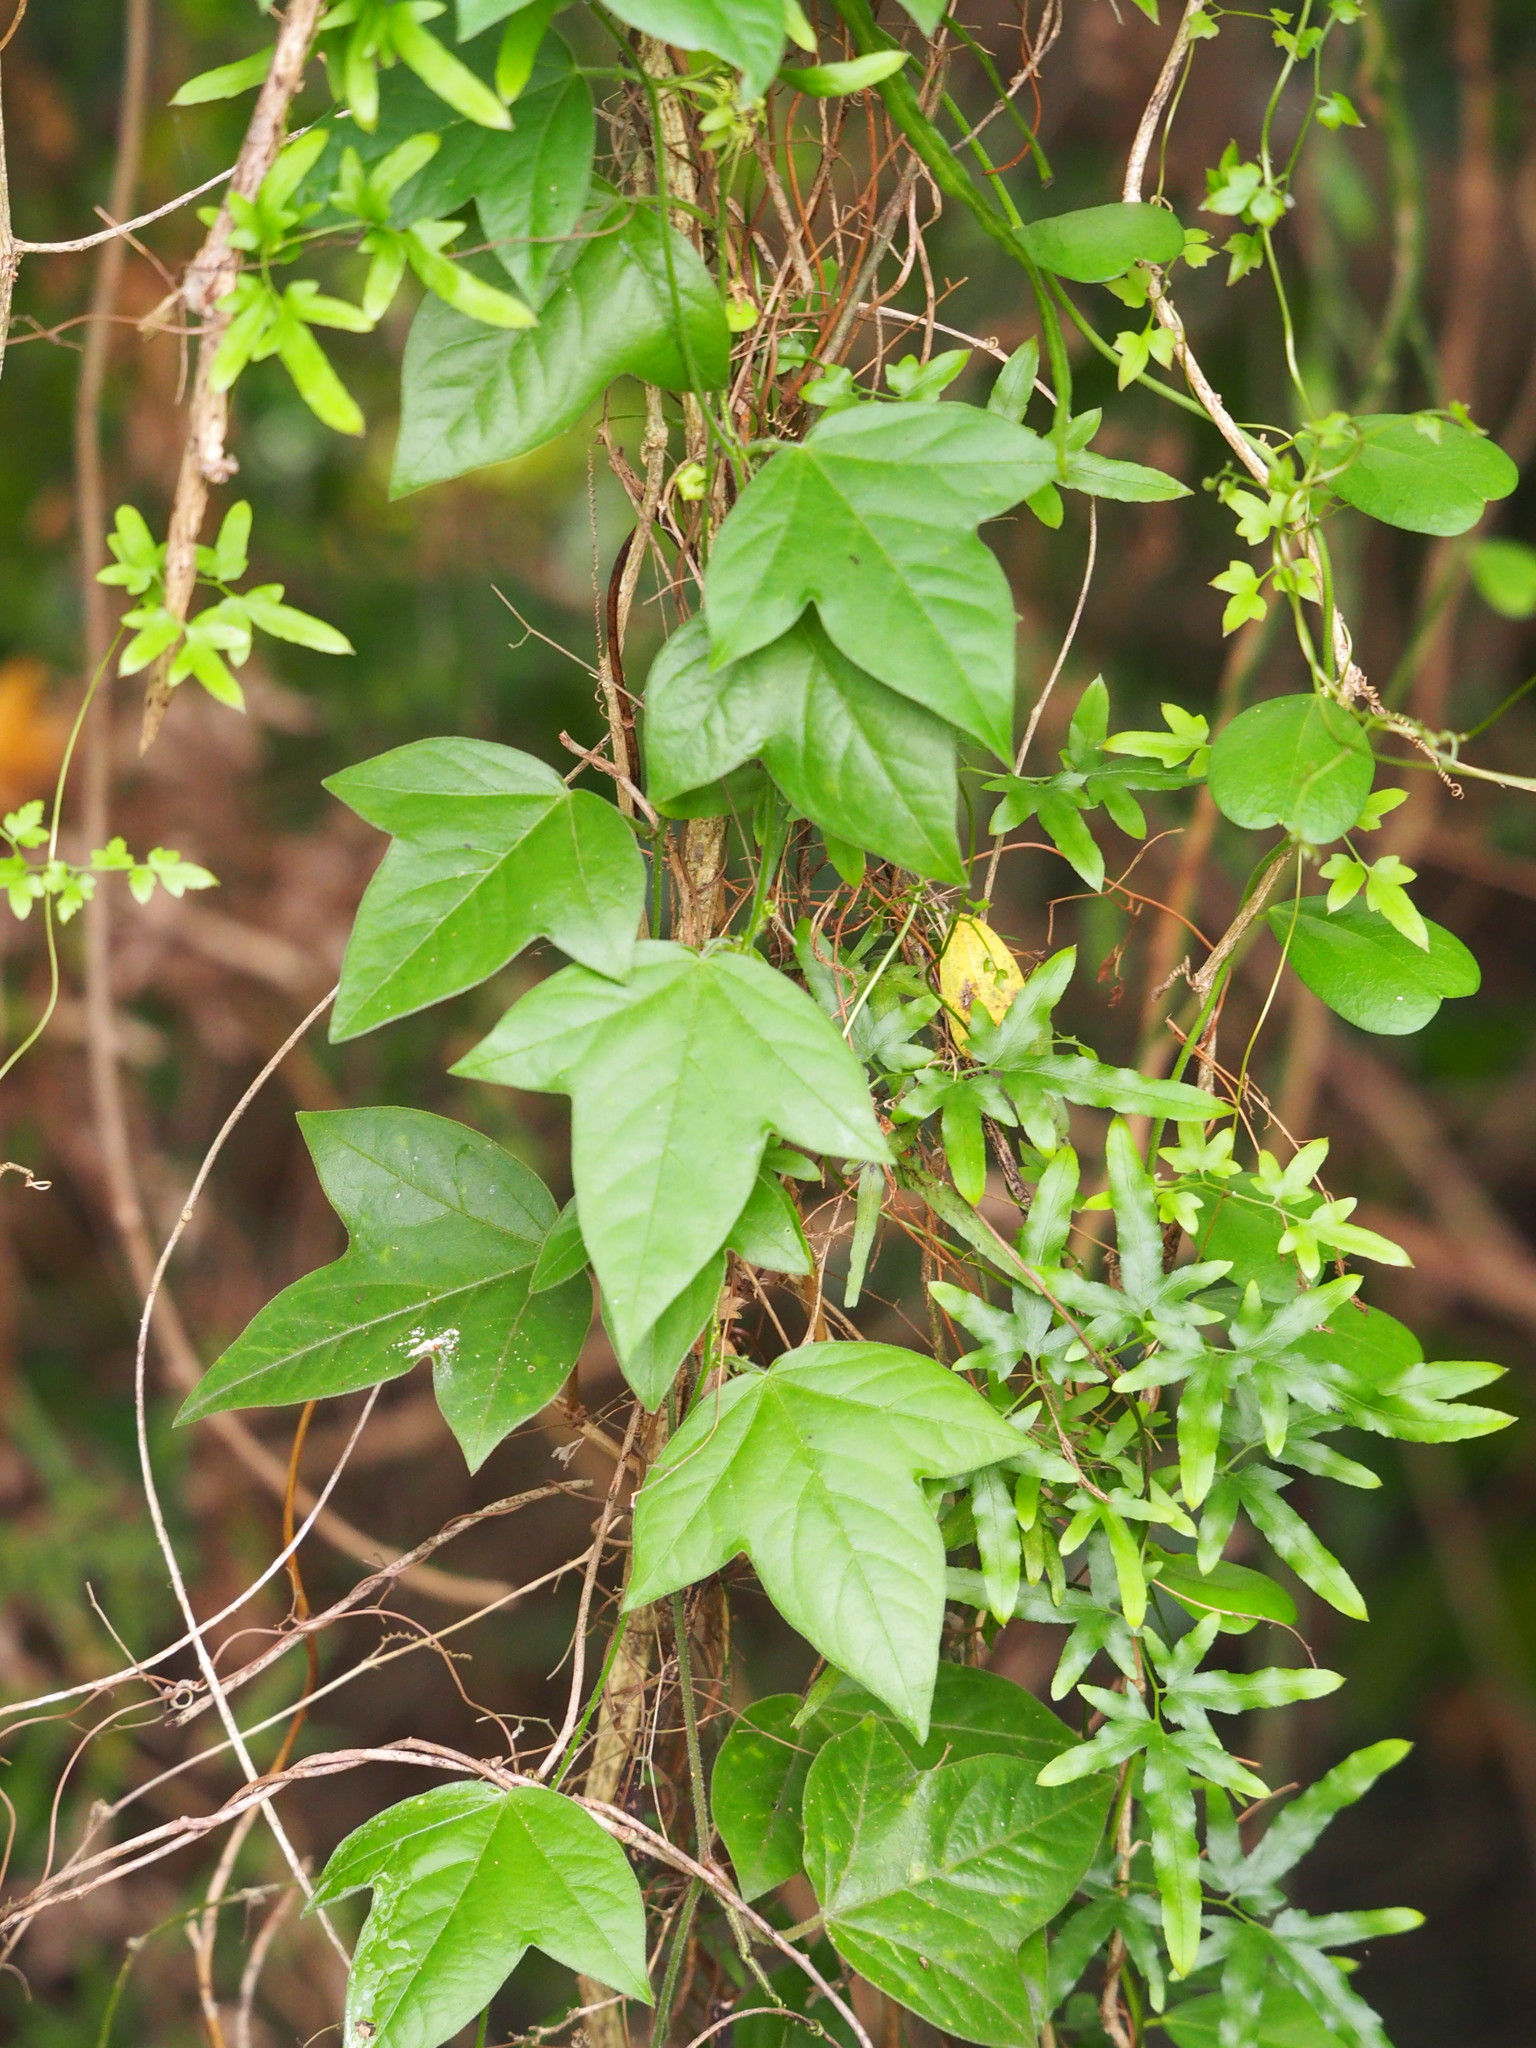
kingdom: Plantae
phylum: Tracheophyta
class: Magnoliopsida
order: Malpighiales
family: Passifloraceae
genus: Passiflora
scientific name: Passiflora suberosa
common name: Wild passionfruit
